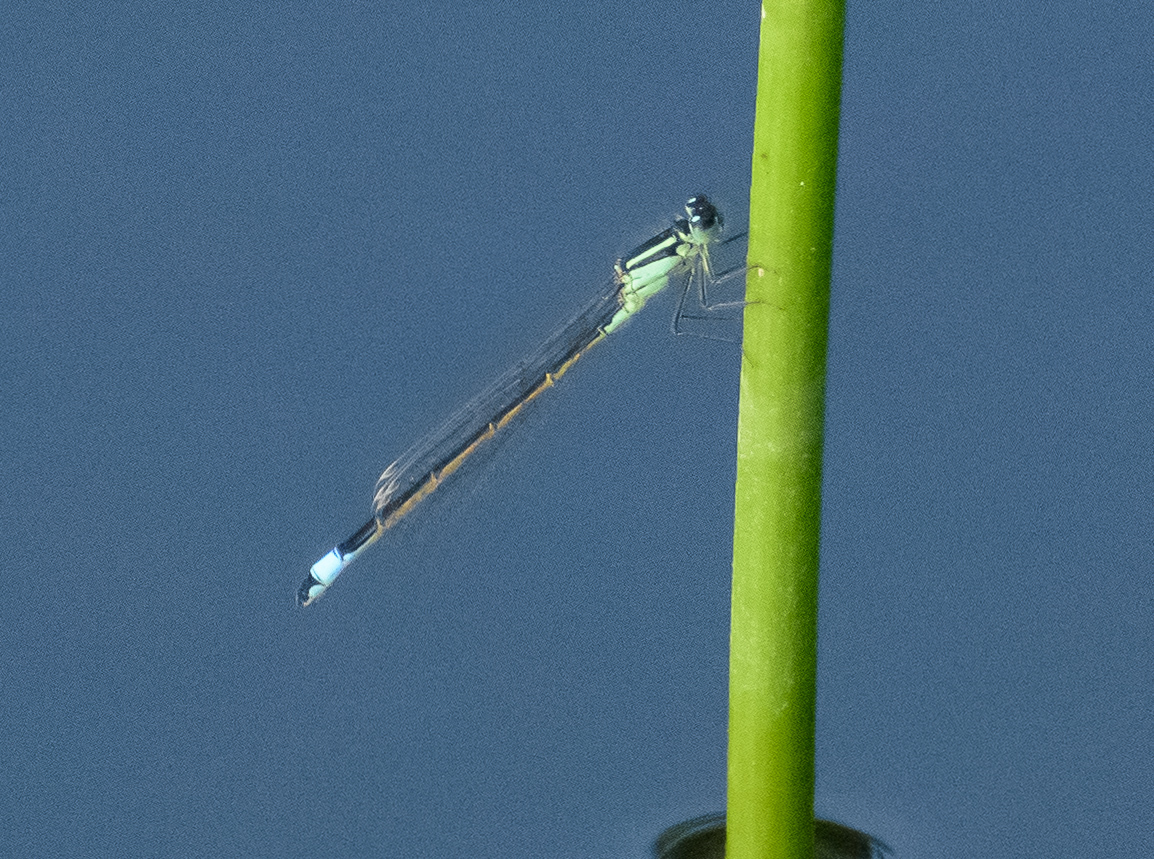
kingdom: Animalia
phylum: Arthropoda
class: Insecta
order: Odonata
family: Coenagrionidae
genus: Ischnura
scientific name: Ischnura elegans
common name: Blue-tailed damselfly
